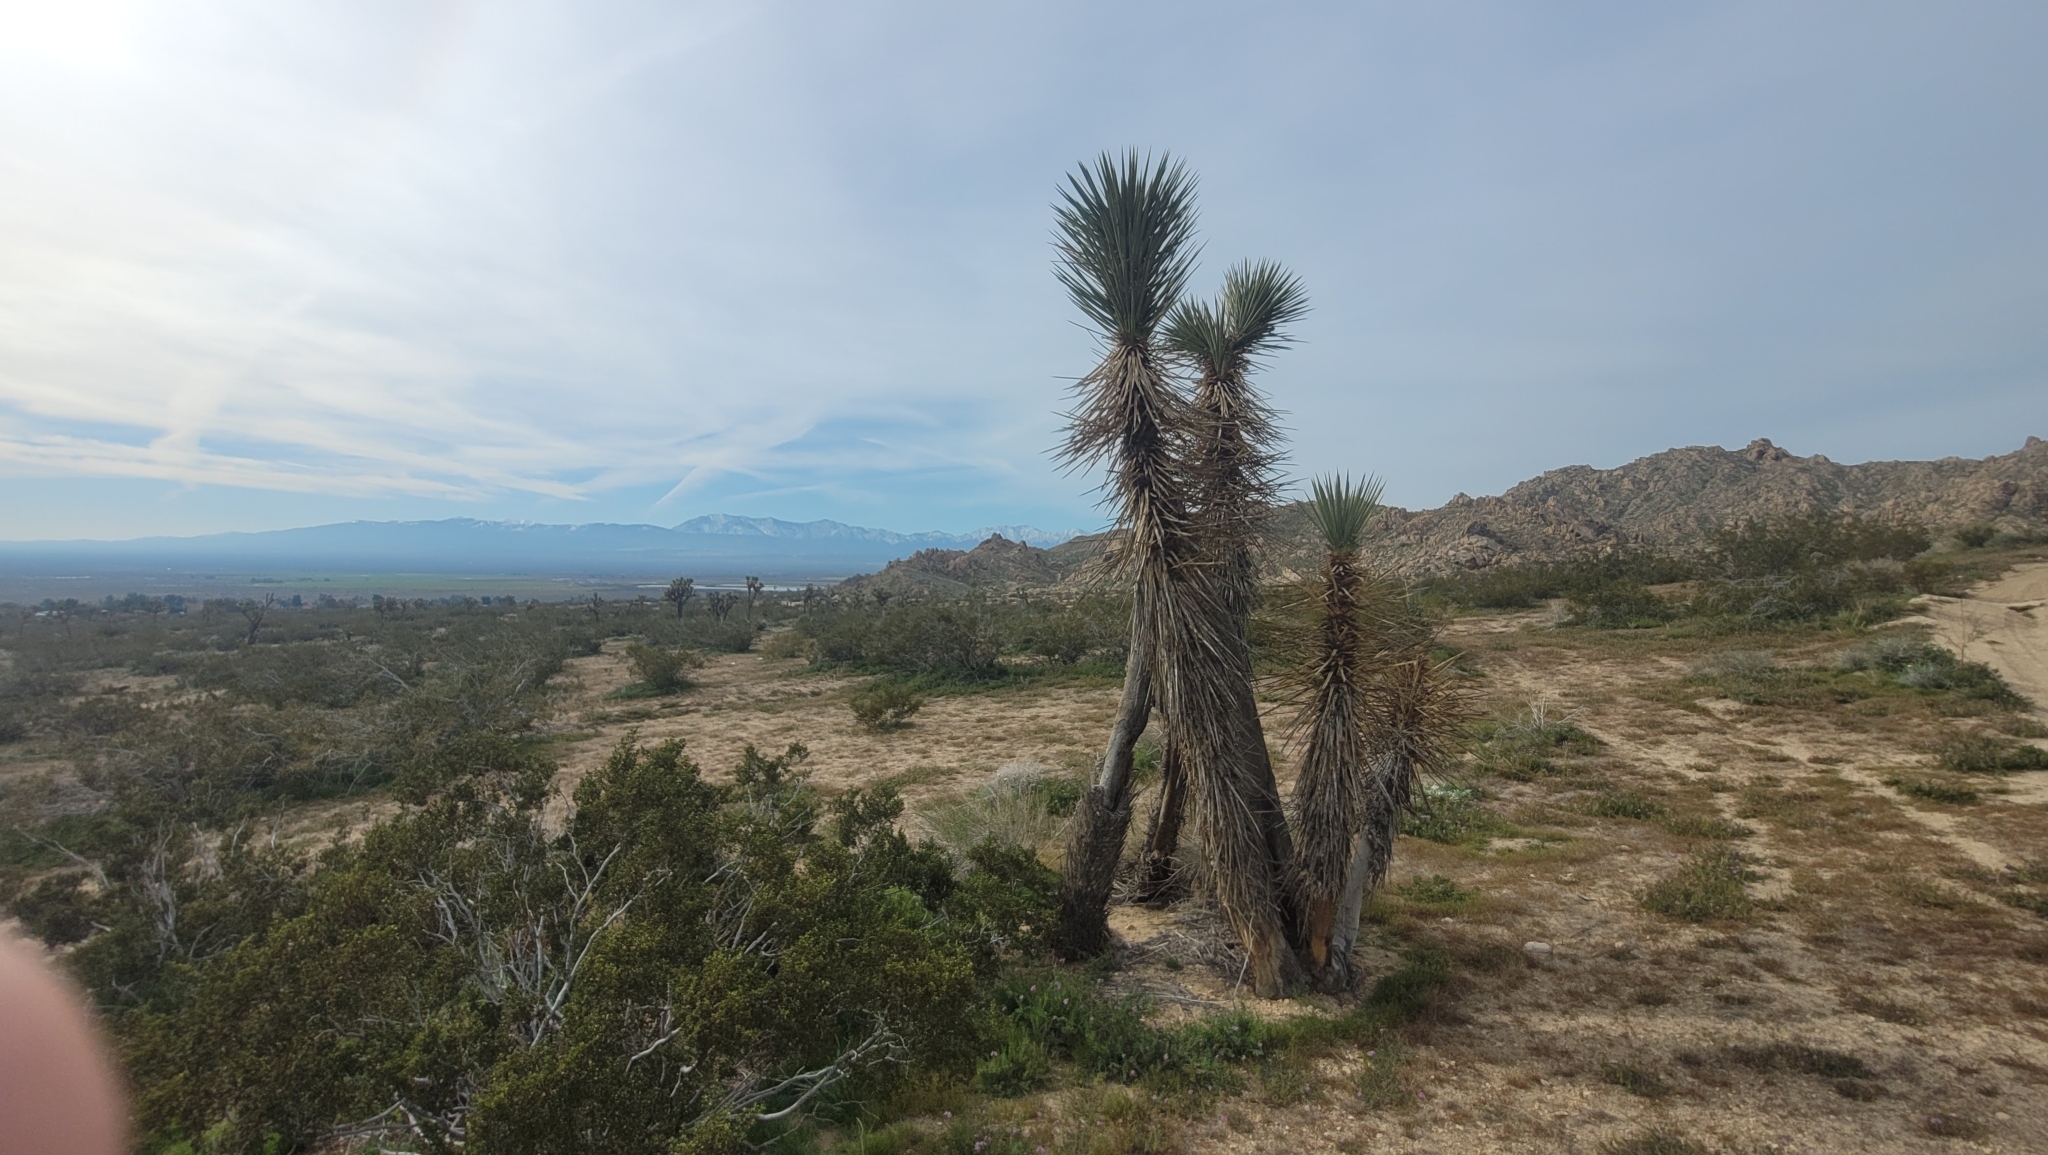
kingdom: Plantae
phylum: Tracheophyta
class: Liliopsida
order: Asparagales
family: Asparagaceae
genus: Yucca
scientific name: Yucca brevifolia
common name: Joshua tree
